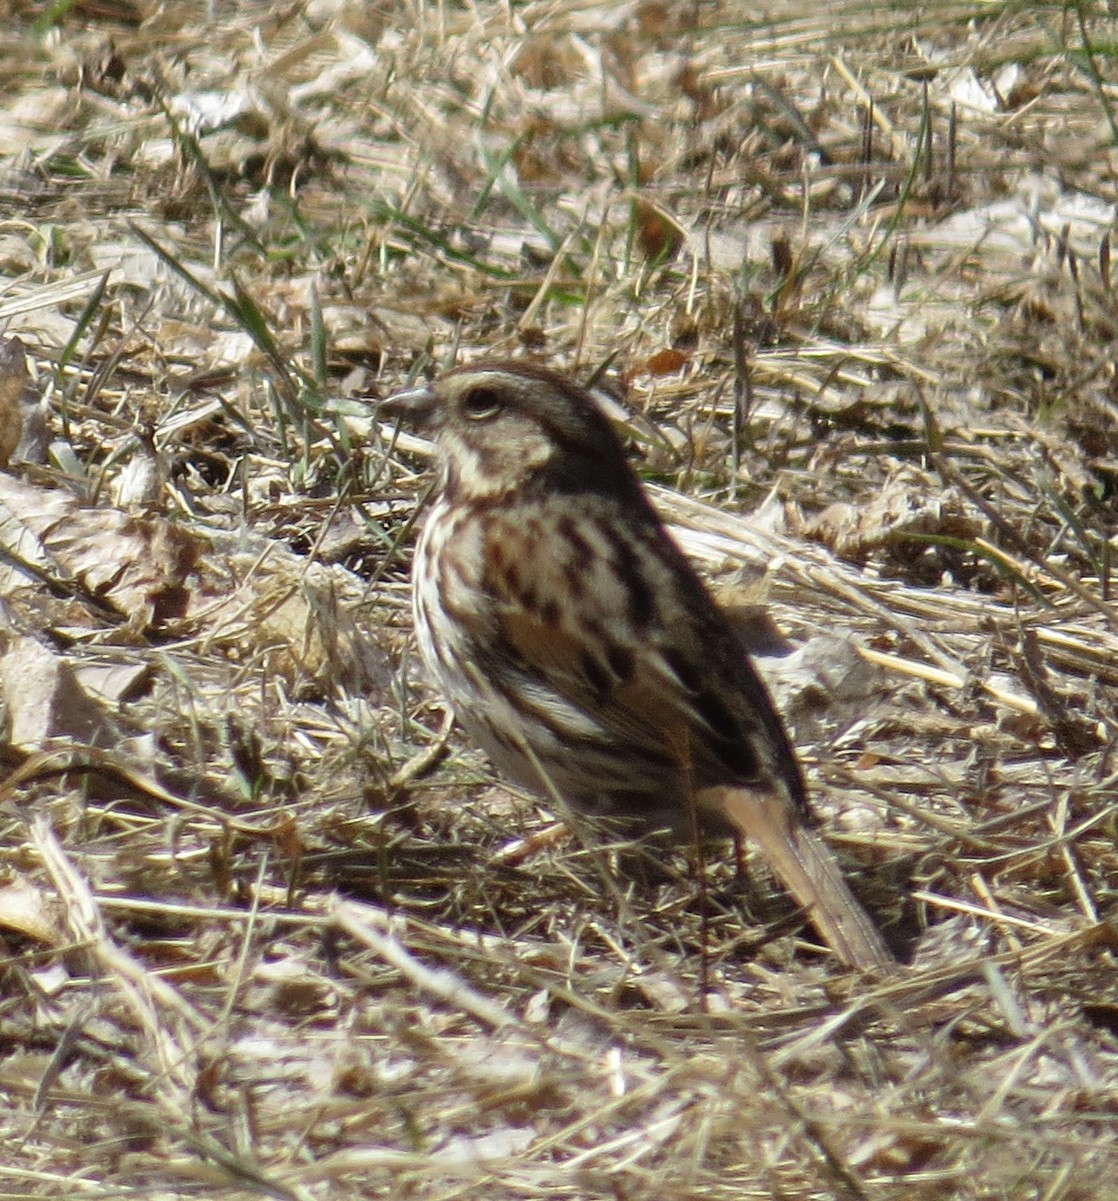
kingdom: Animalia
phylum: Chordata
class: Aves
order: Passeriformes
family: Passerellidae
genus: Melospiza
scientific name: Melospiza melodia
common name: Song sparrow
